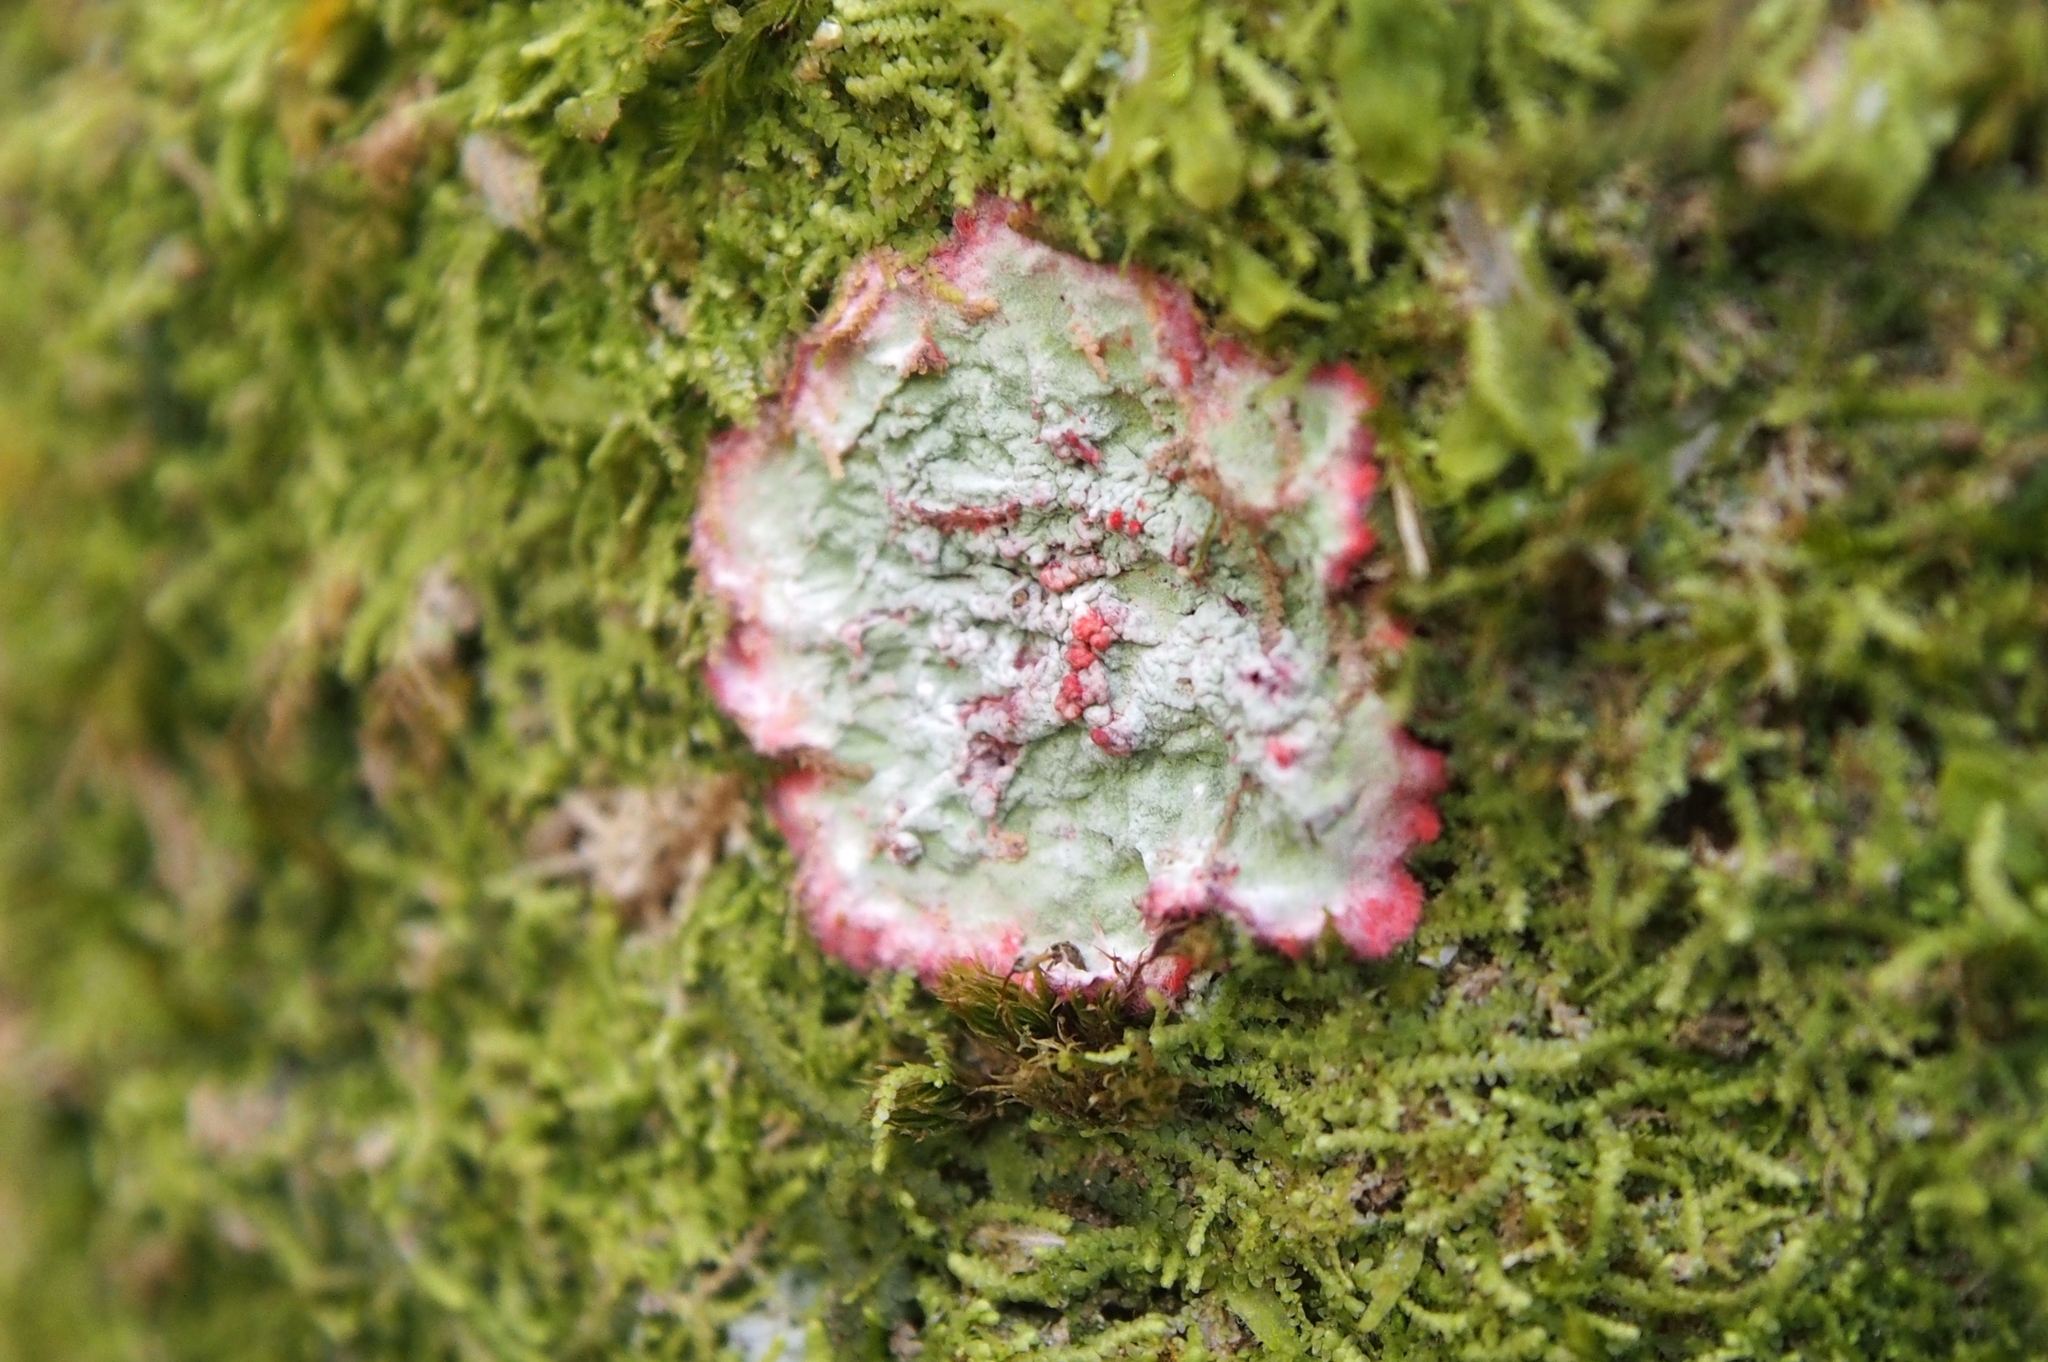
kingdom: Fungi
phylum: Ascomycota
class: Arthoniomycetes
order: Arthoniales
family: Arthoniaceae
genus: Herpothallon
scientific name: Herpothallon rubrocinctum
